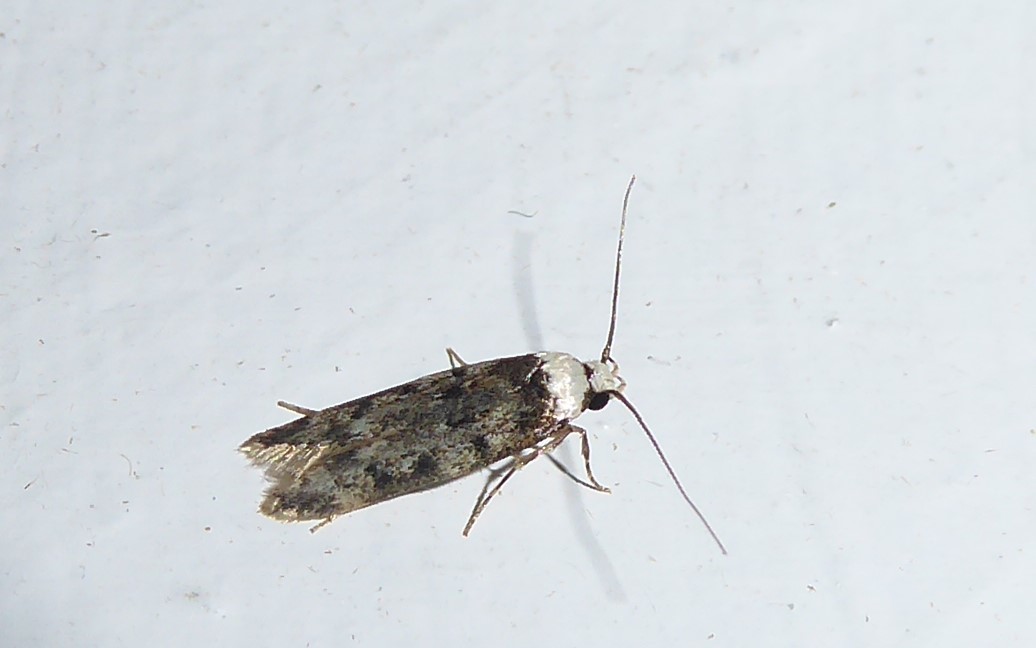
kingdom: Animalia
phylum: Arthropoda
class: Insecta
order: Lepidoptera
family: Oecophoridae
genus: Endrosis
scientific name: Endrosis sarcitrella
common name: White-shouldered house moth
